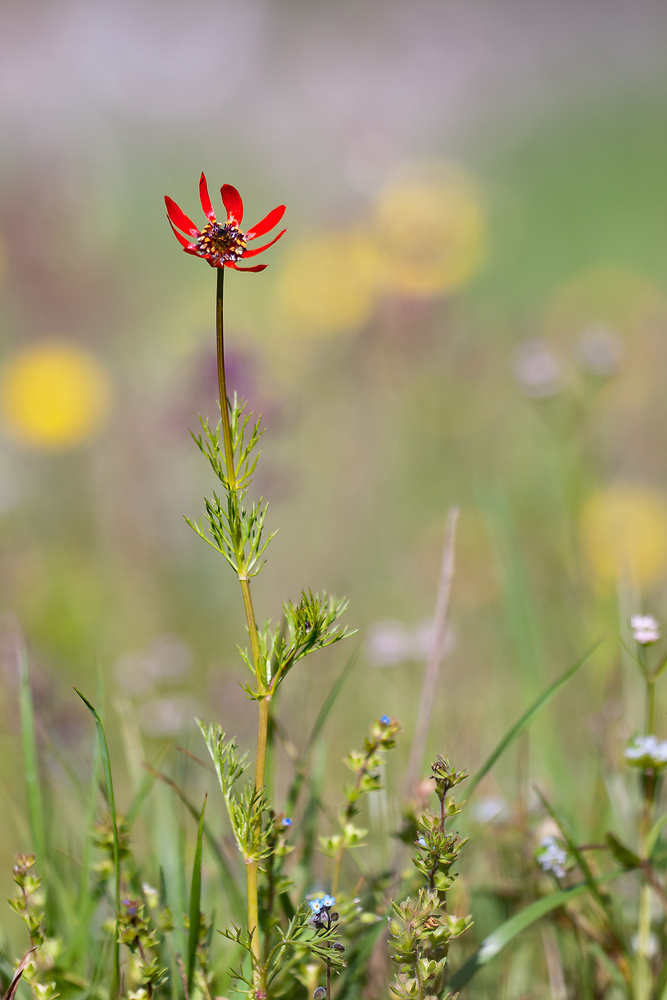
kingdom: Plantae
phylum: Tracheophyta
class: Magnoliopsida
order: Ranunculales
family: Ranunculaceae
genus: Adonis
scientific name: Adonis flammea
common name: Large pheasant's-eye
